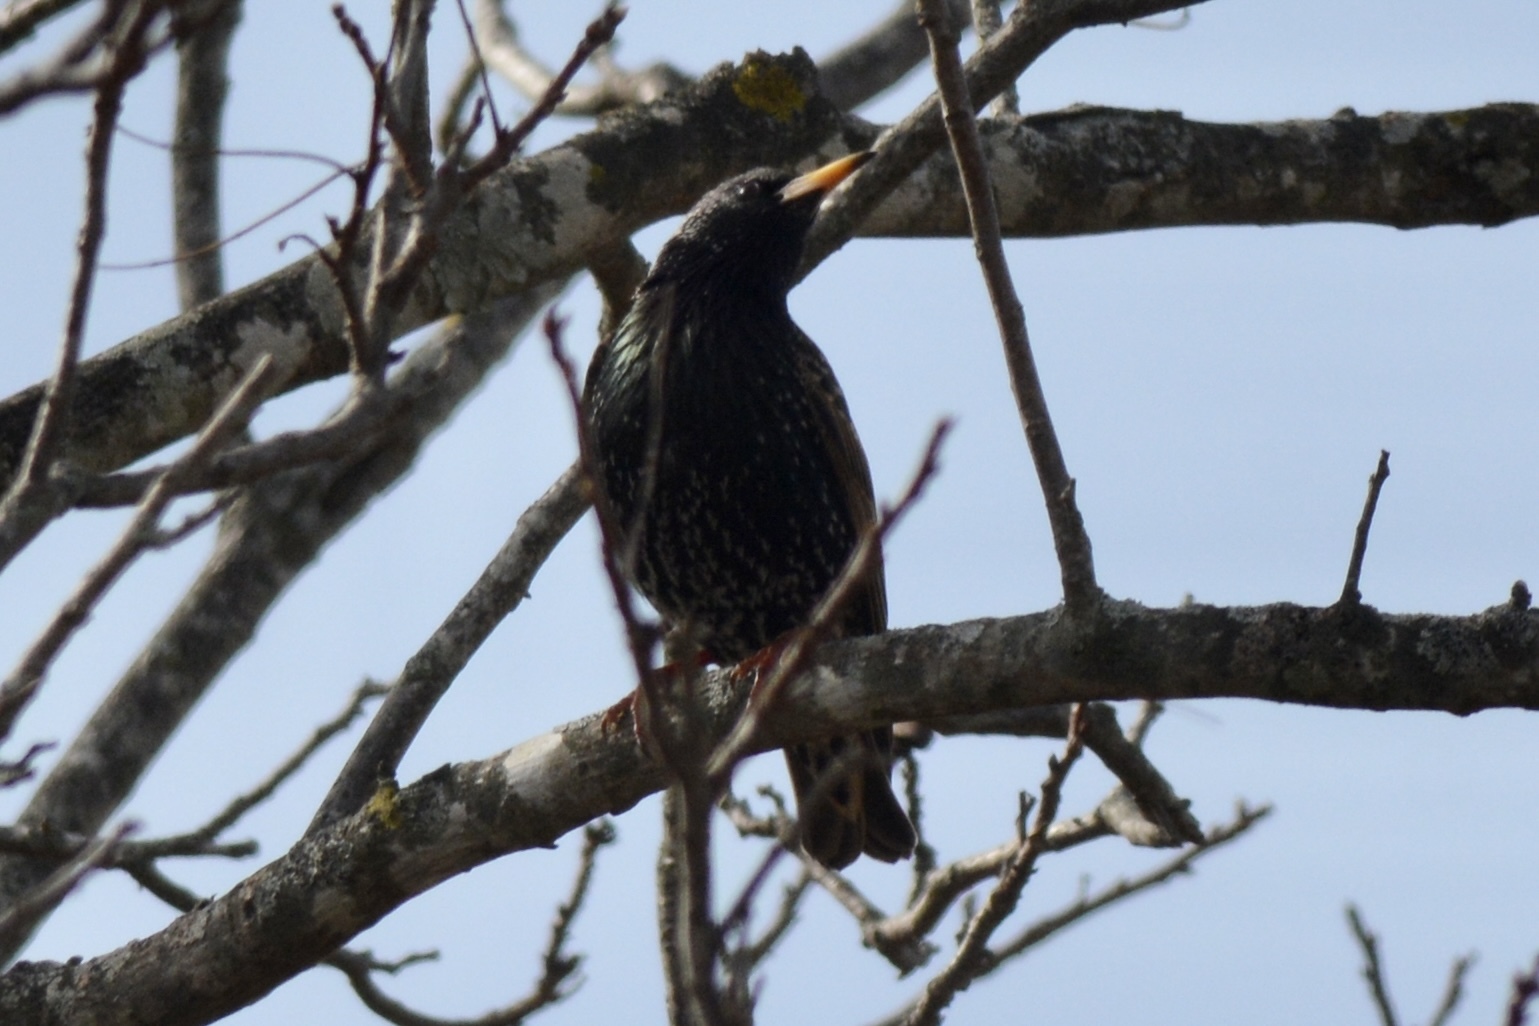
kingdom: Animalia
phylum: Chordata
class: Aves
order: Passeriformes
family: Sturnidae
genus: Sturnus
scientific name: Sturnus vulgaris
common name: Common starling
